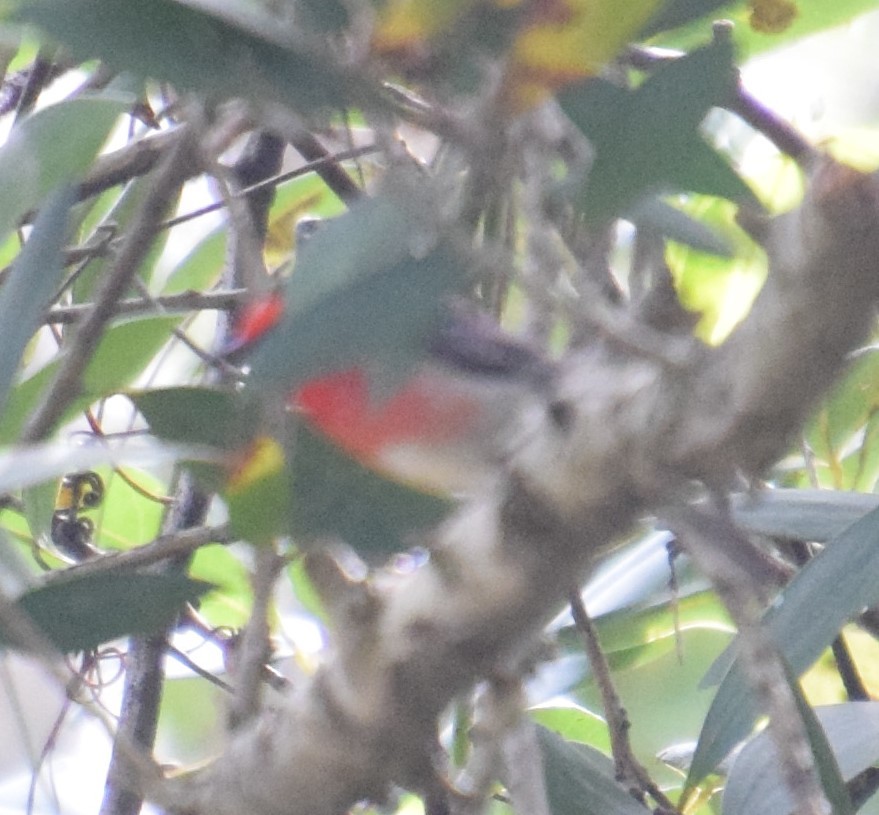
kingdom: Animalia
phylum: Chordata
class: Aves
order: Passeriformes
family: Meliphagidae
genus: Myzomela
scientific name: Myzomela sanguinolenta
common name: Scarlet myzomela
